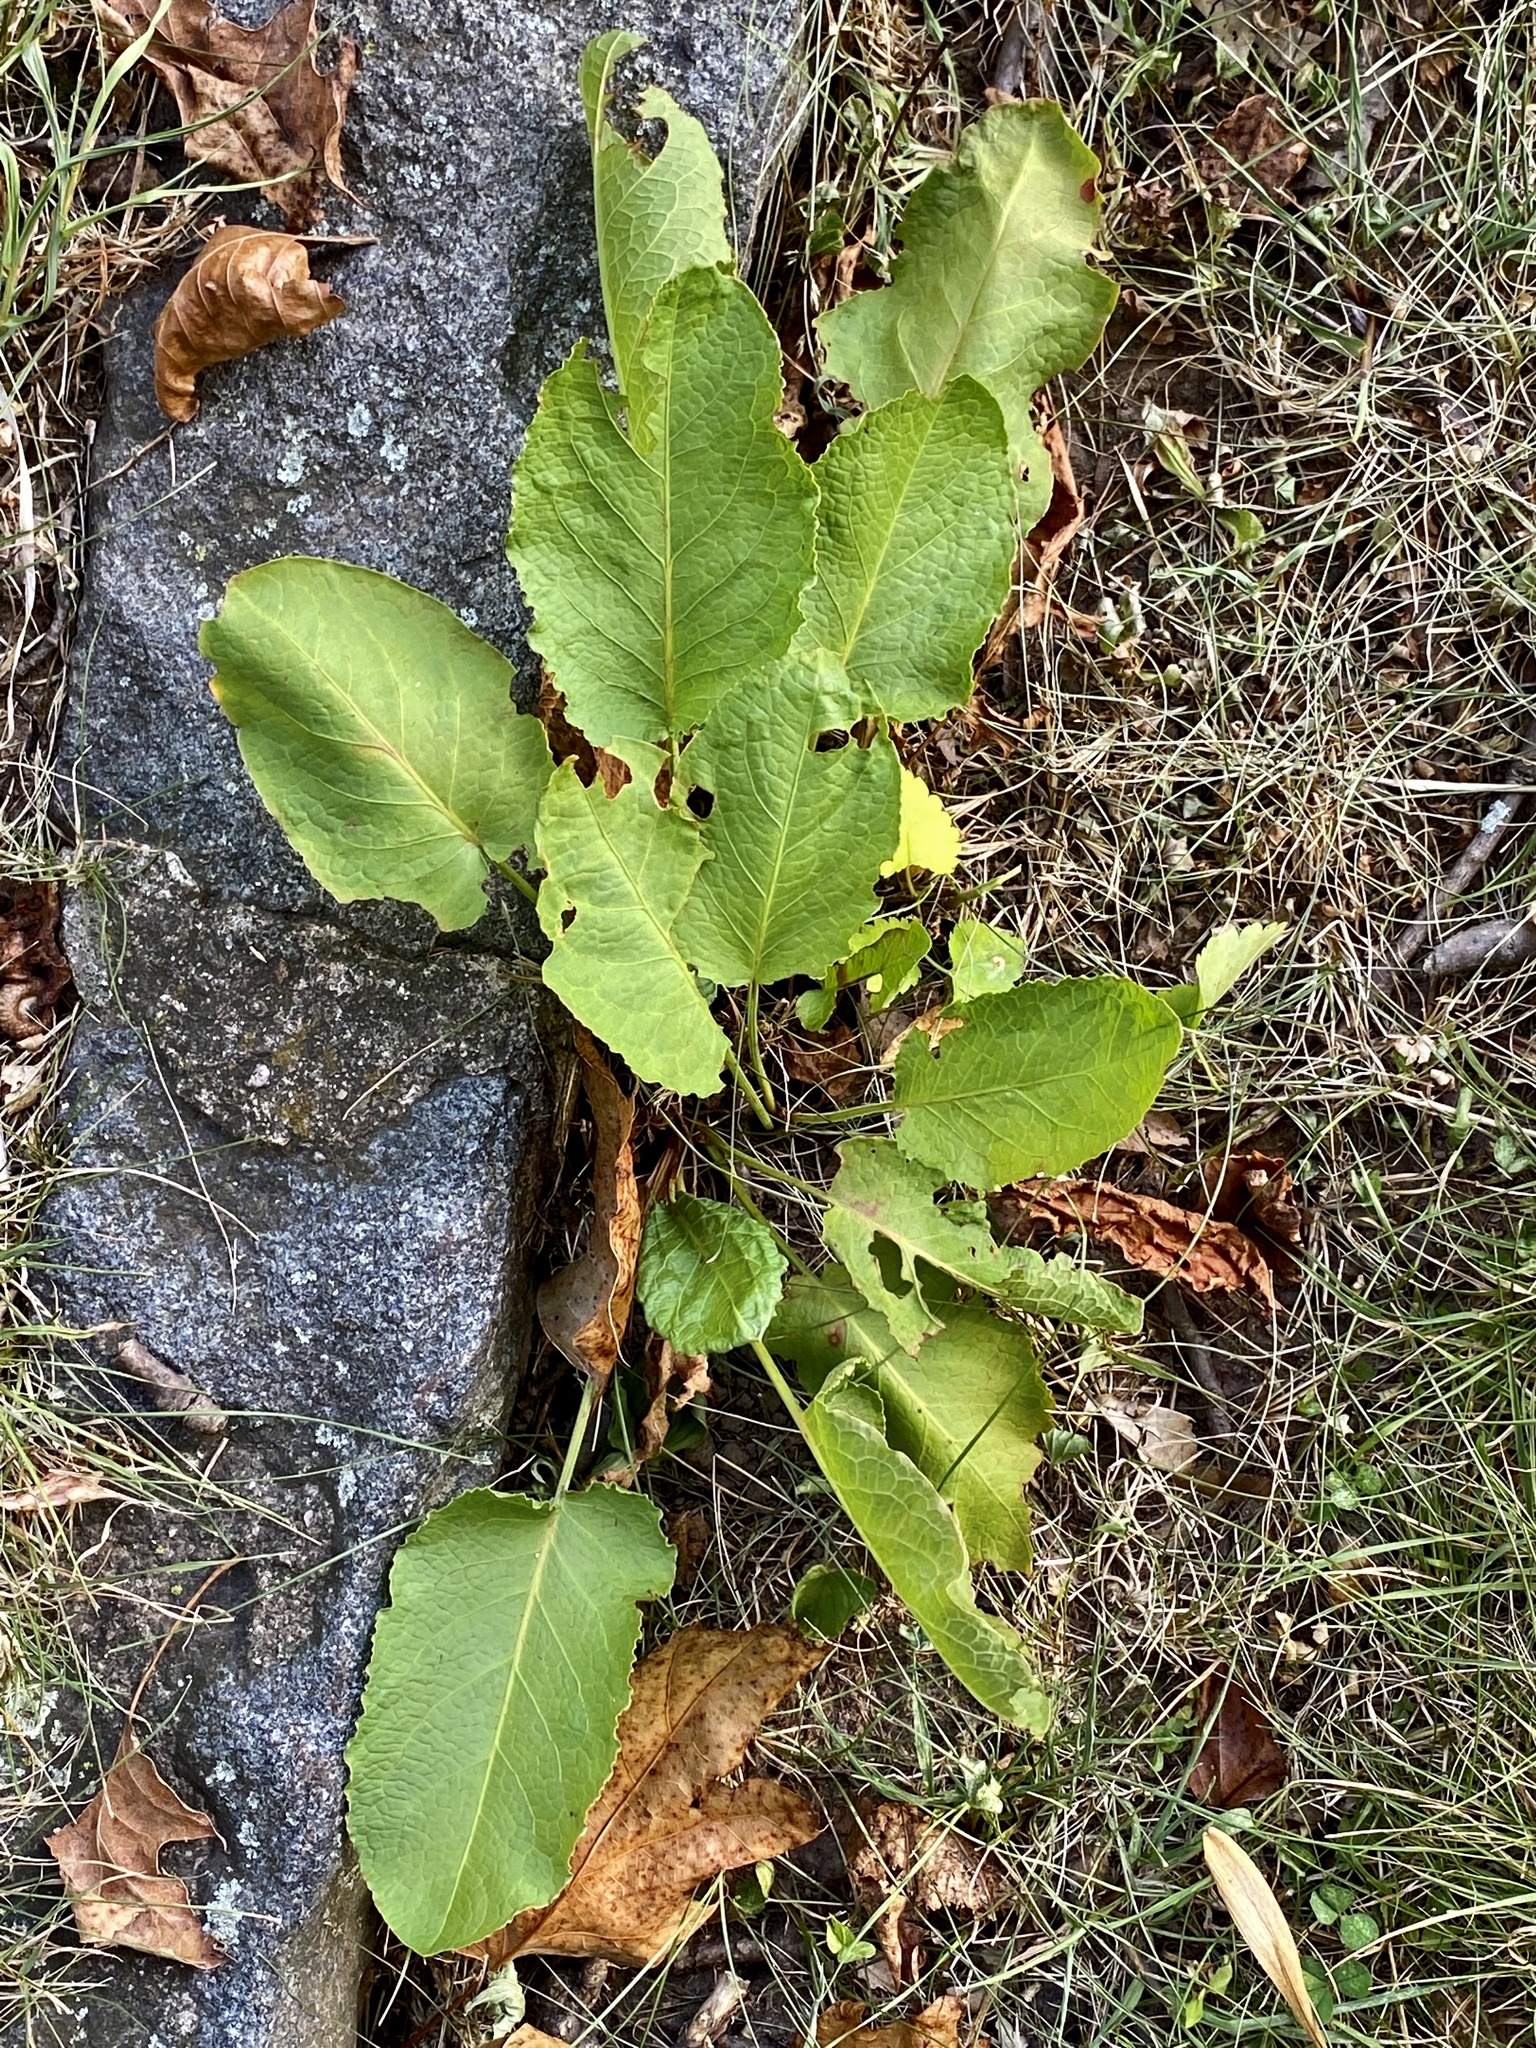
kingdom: Plantae
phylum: Tracheophyta
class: Magnoliopsida
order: Caryophyllales
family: Polygonaceae
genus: Rumex
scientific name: Rumex obtusifolius
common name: Bitter dock
